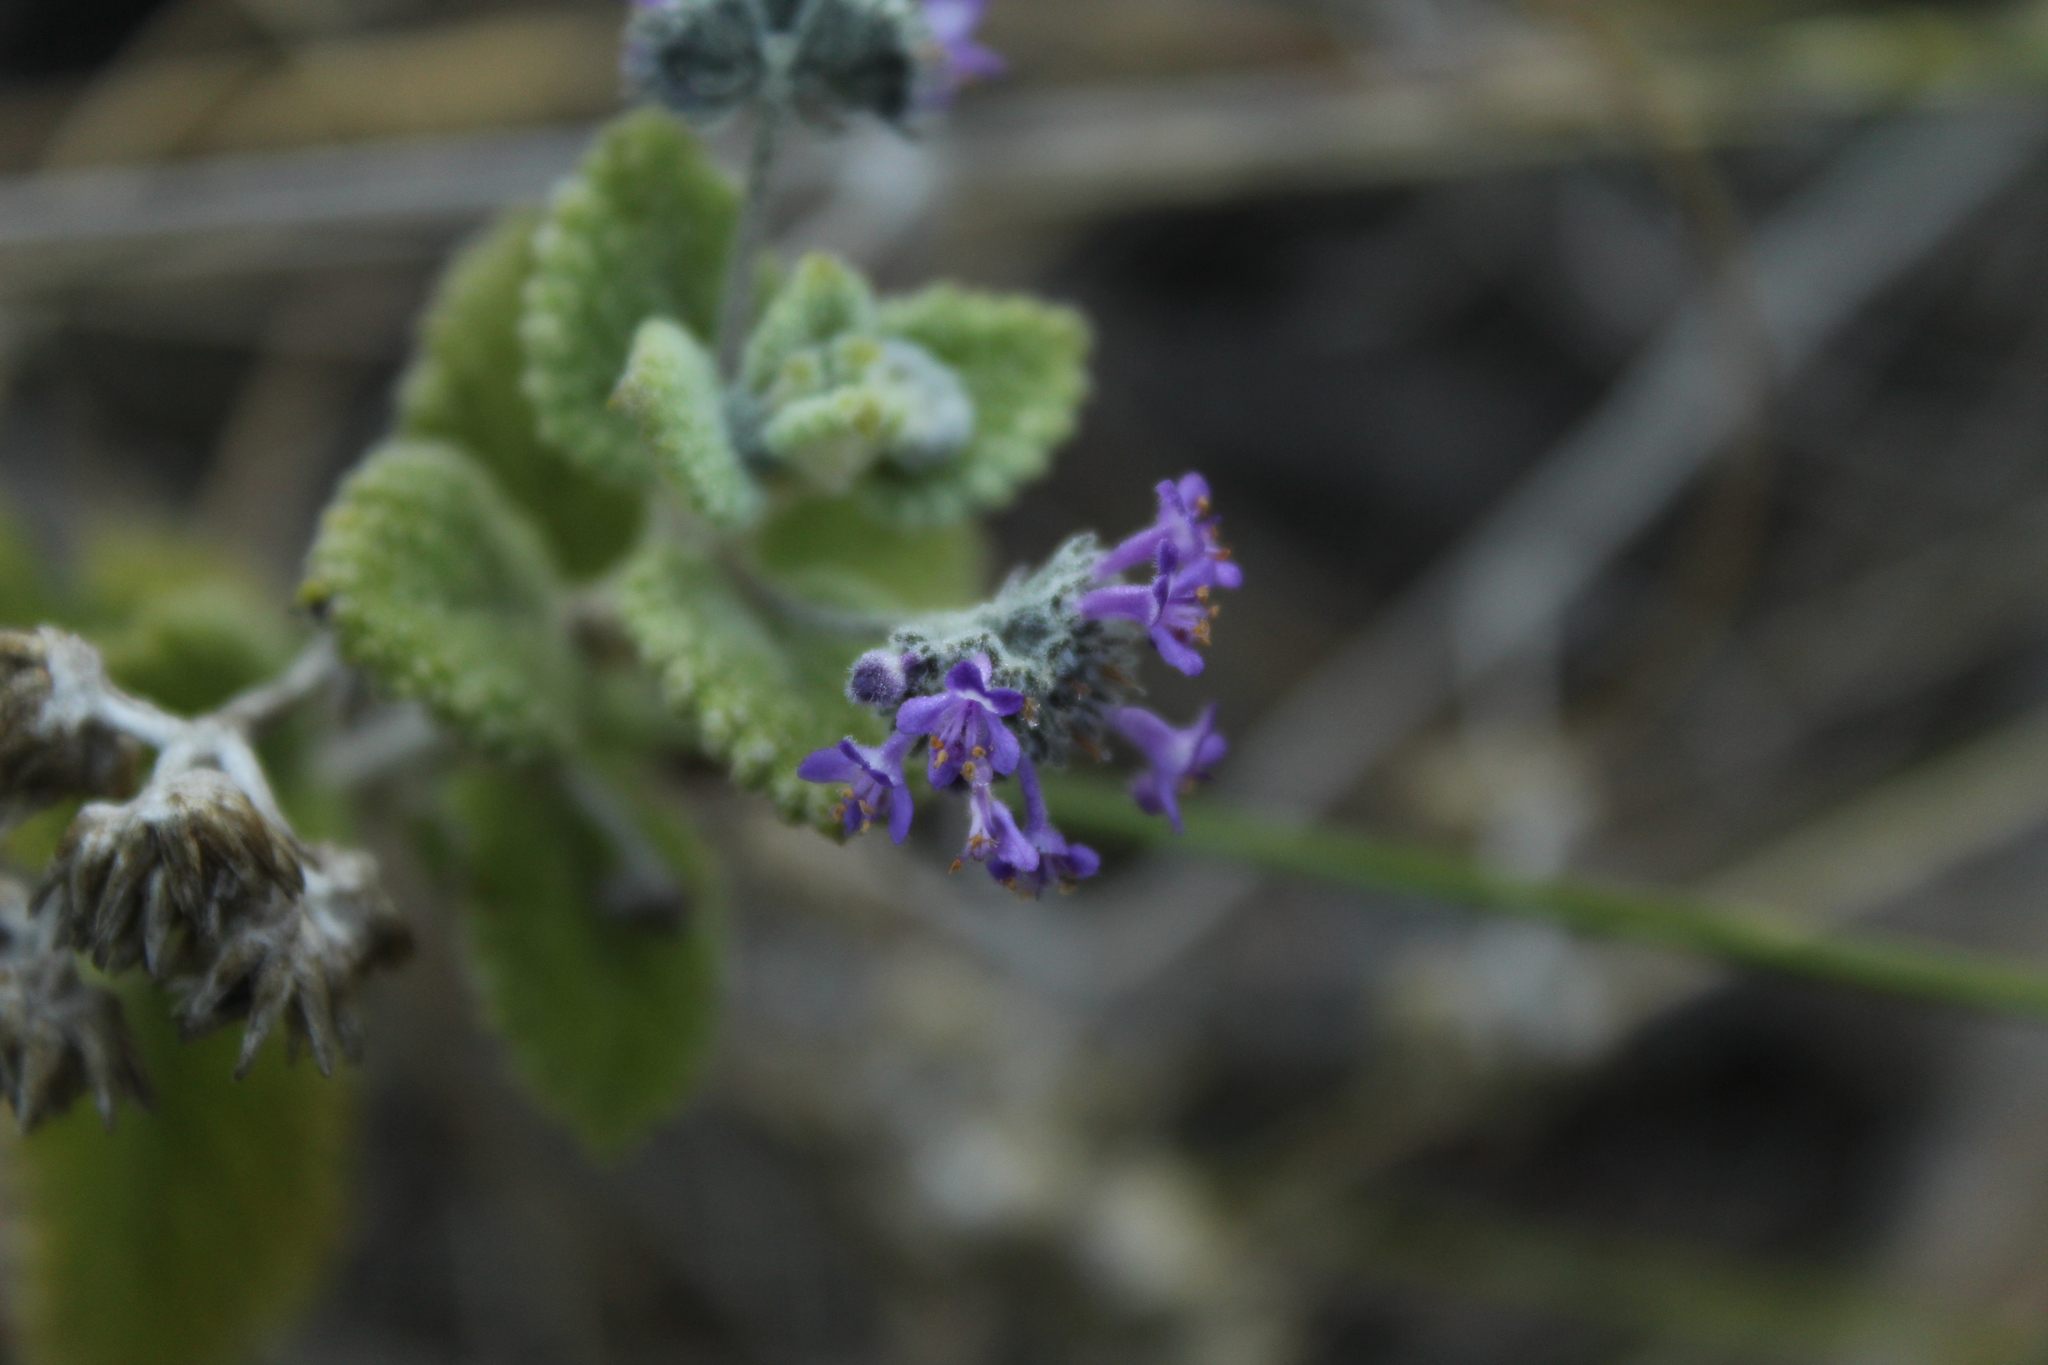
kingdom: Plantae
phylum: Tracheophyta
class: Magnoliopsida
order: Lamiales
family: Lamiaceae
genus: Mesosphaerum
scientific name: Mesosphaerum perbullatum
